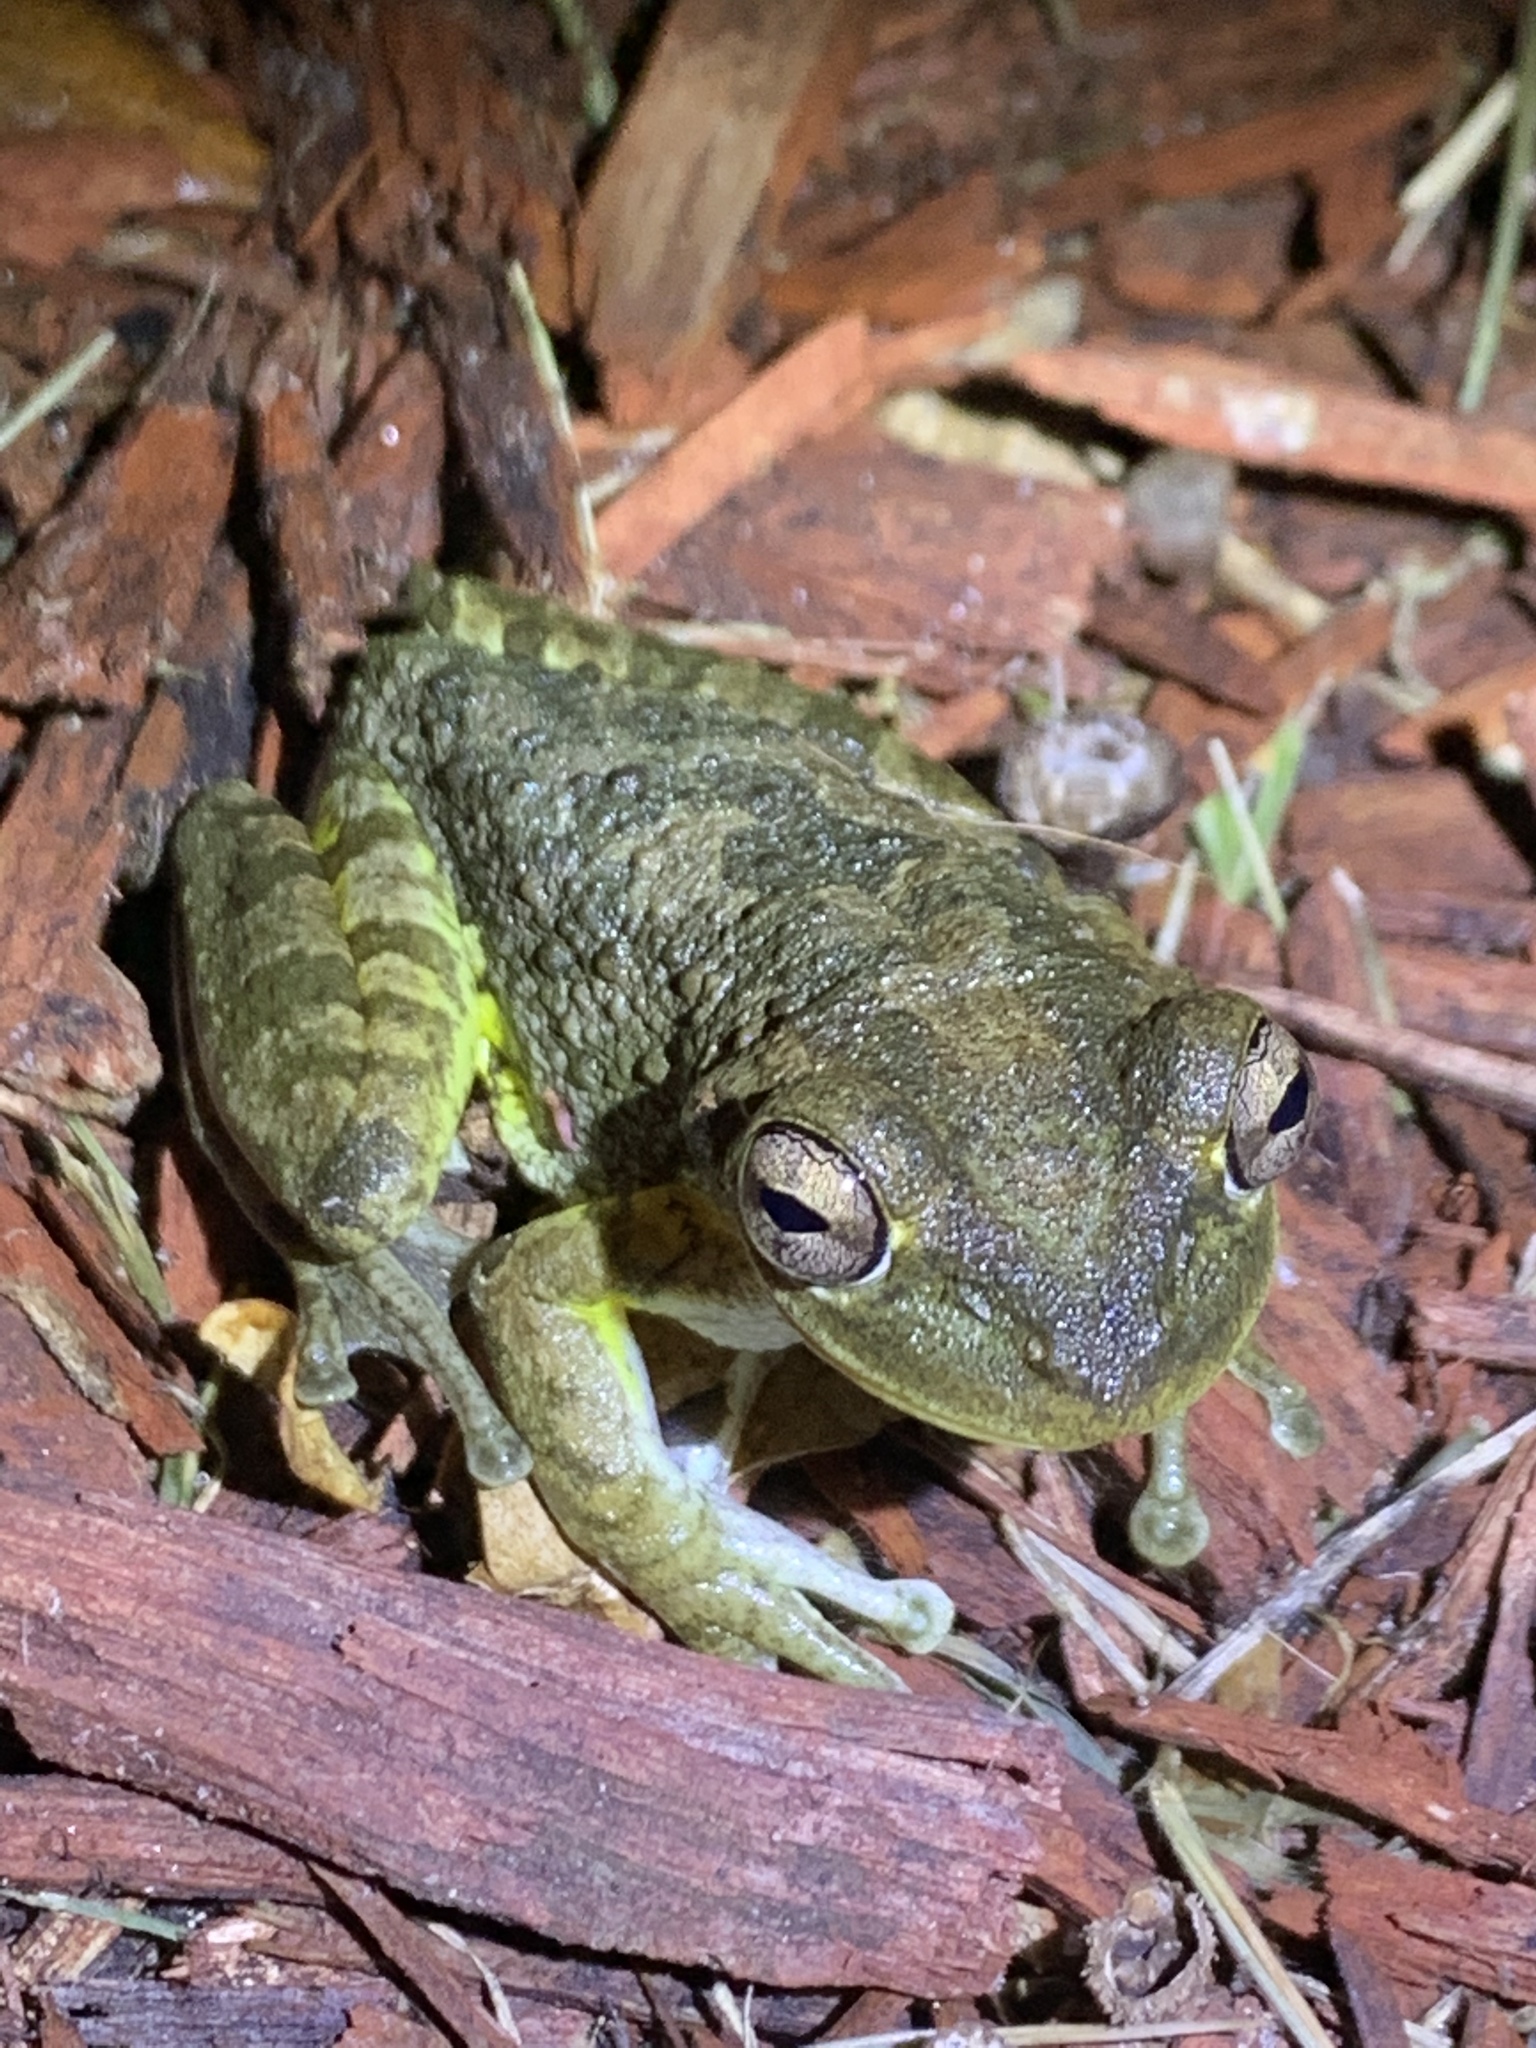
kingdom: Animalia
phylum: Chordata
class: Amphibia
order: Anura
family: Hylidae
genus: Osteopilus
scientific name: Osteopilus septentrionalis
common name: Cuban treefrog
